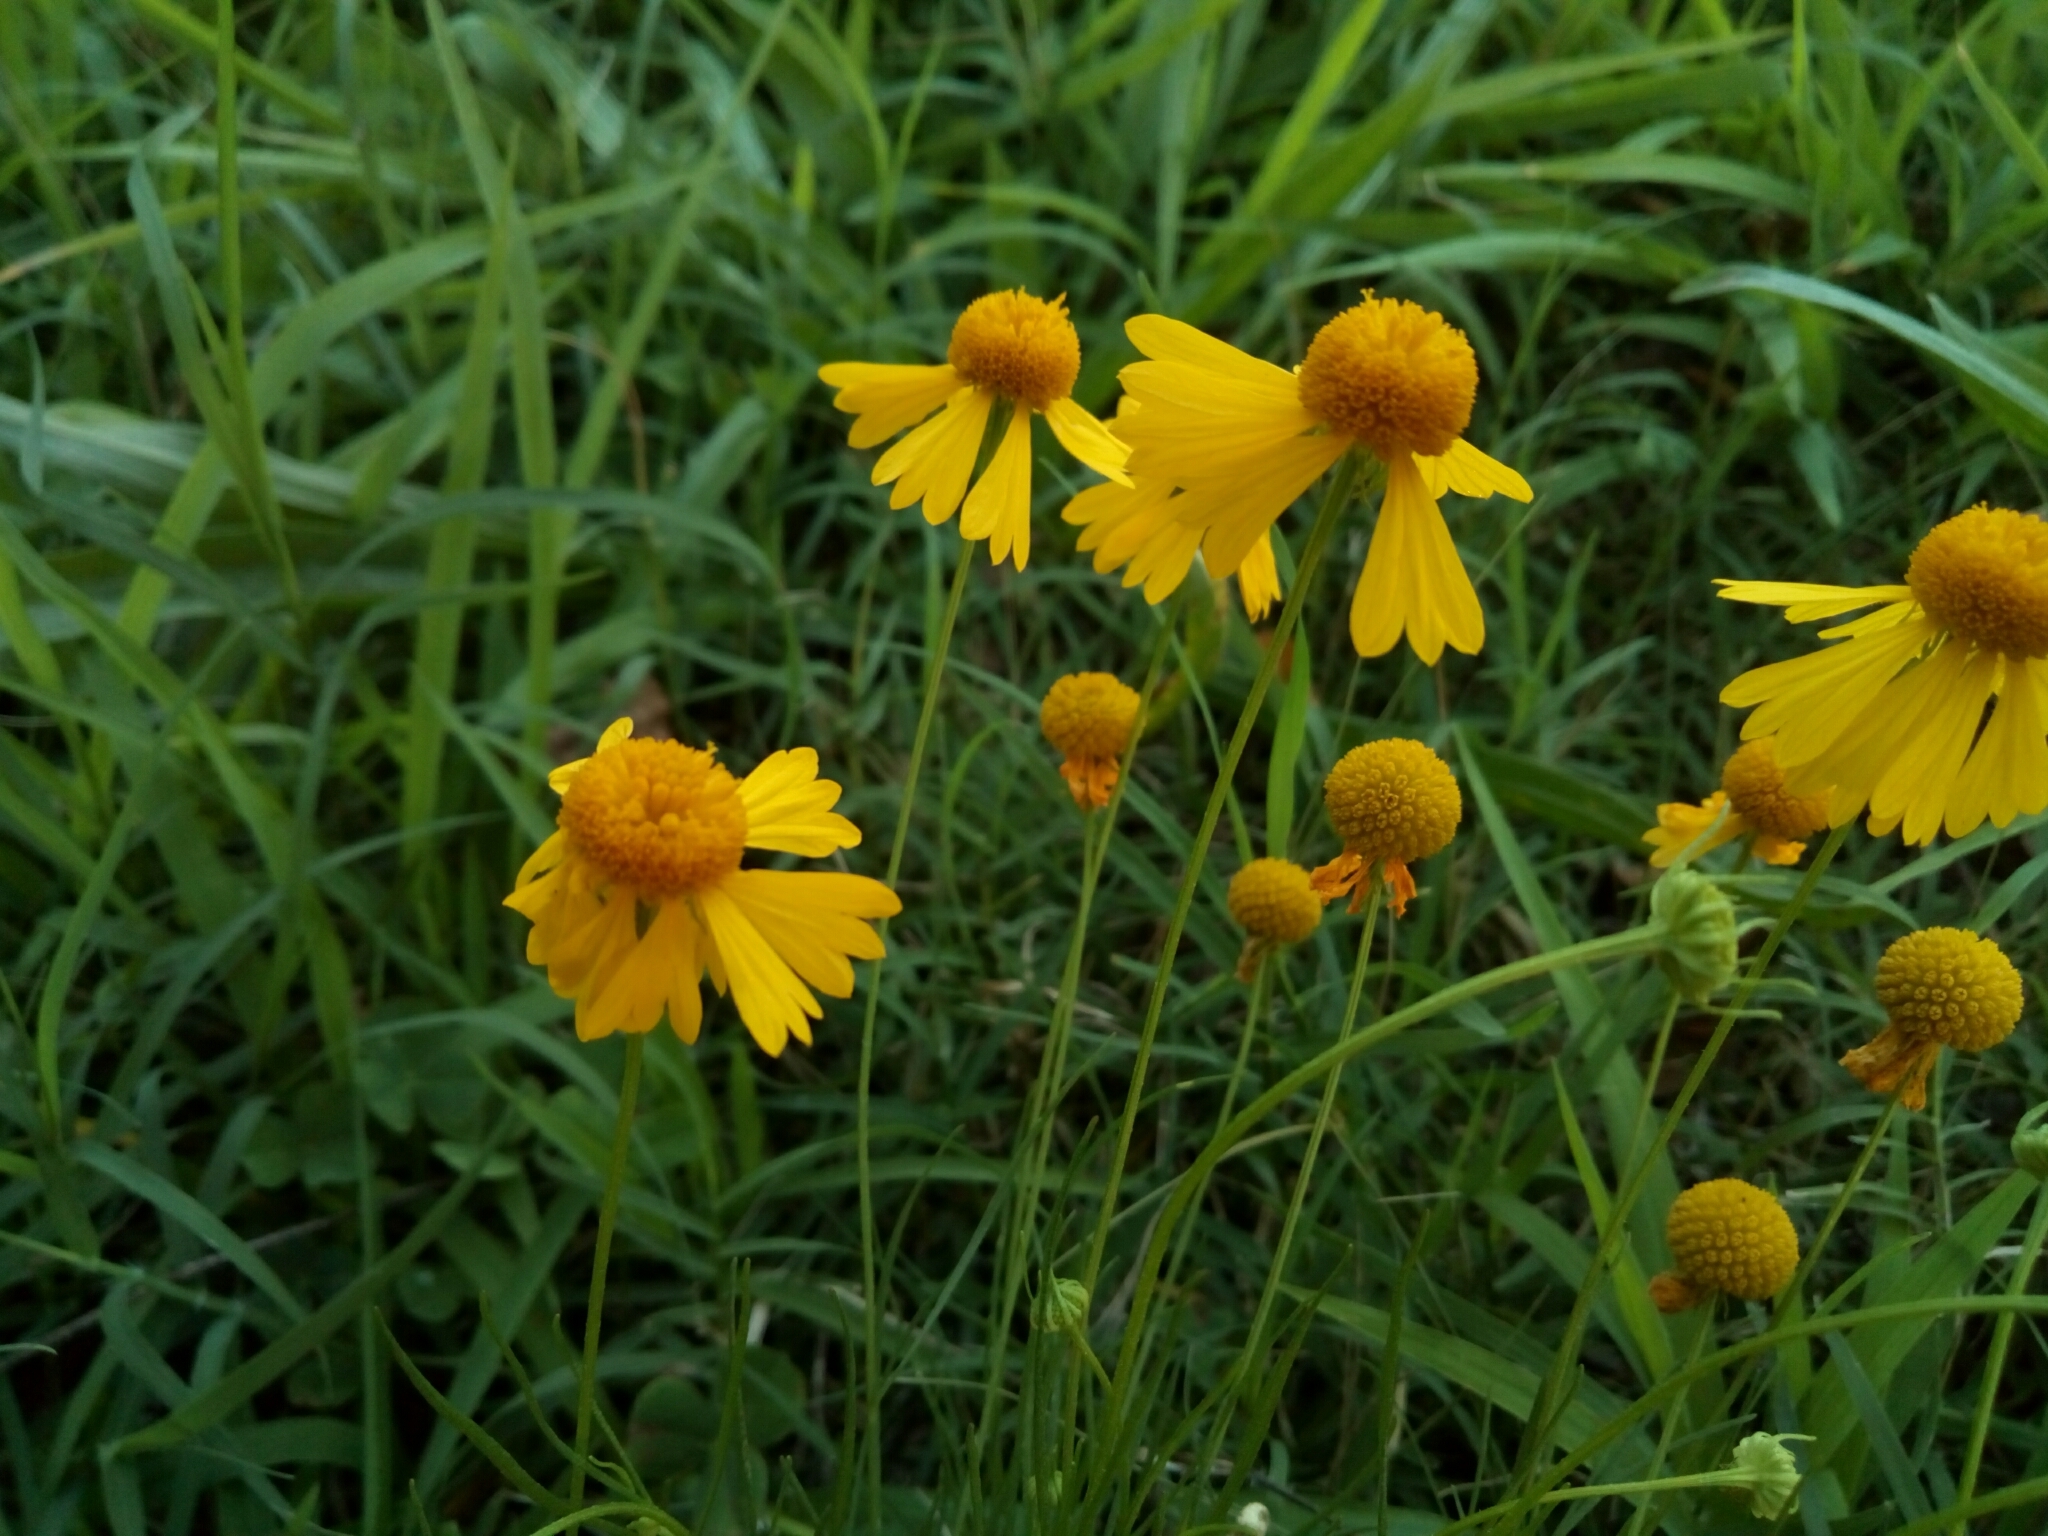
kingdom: Plantae
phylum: Tracheophyta
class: Magnoliopsida
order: Asterales
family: Asteraceae
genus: Helenium
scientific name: Helenium amarum
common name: Bitter sneezeweed
